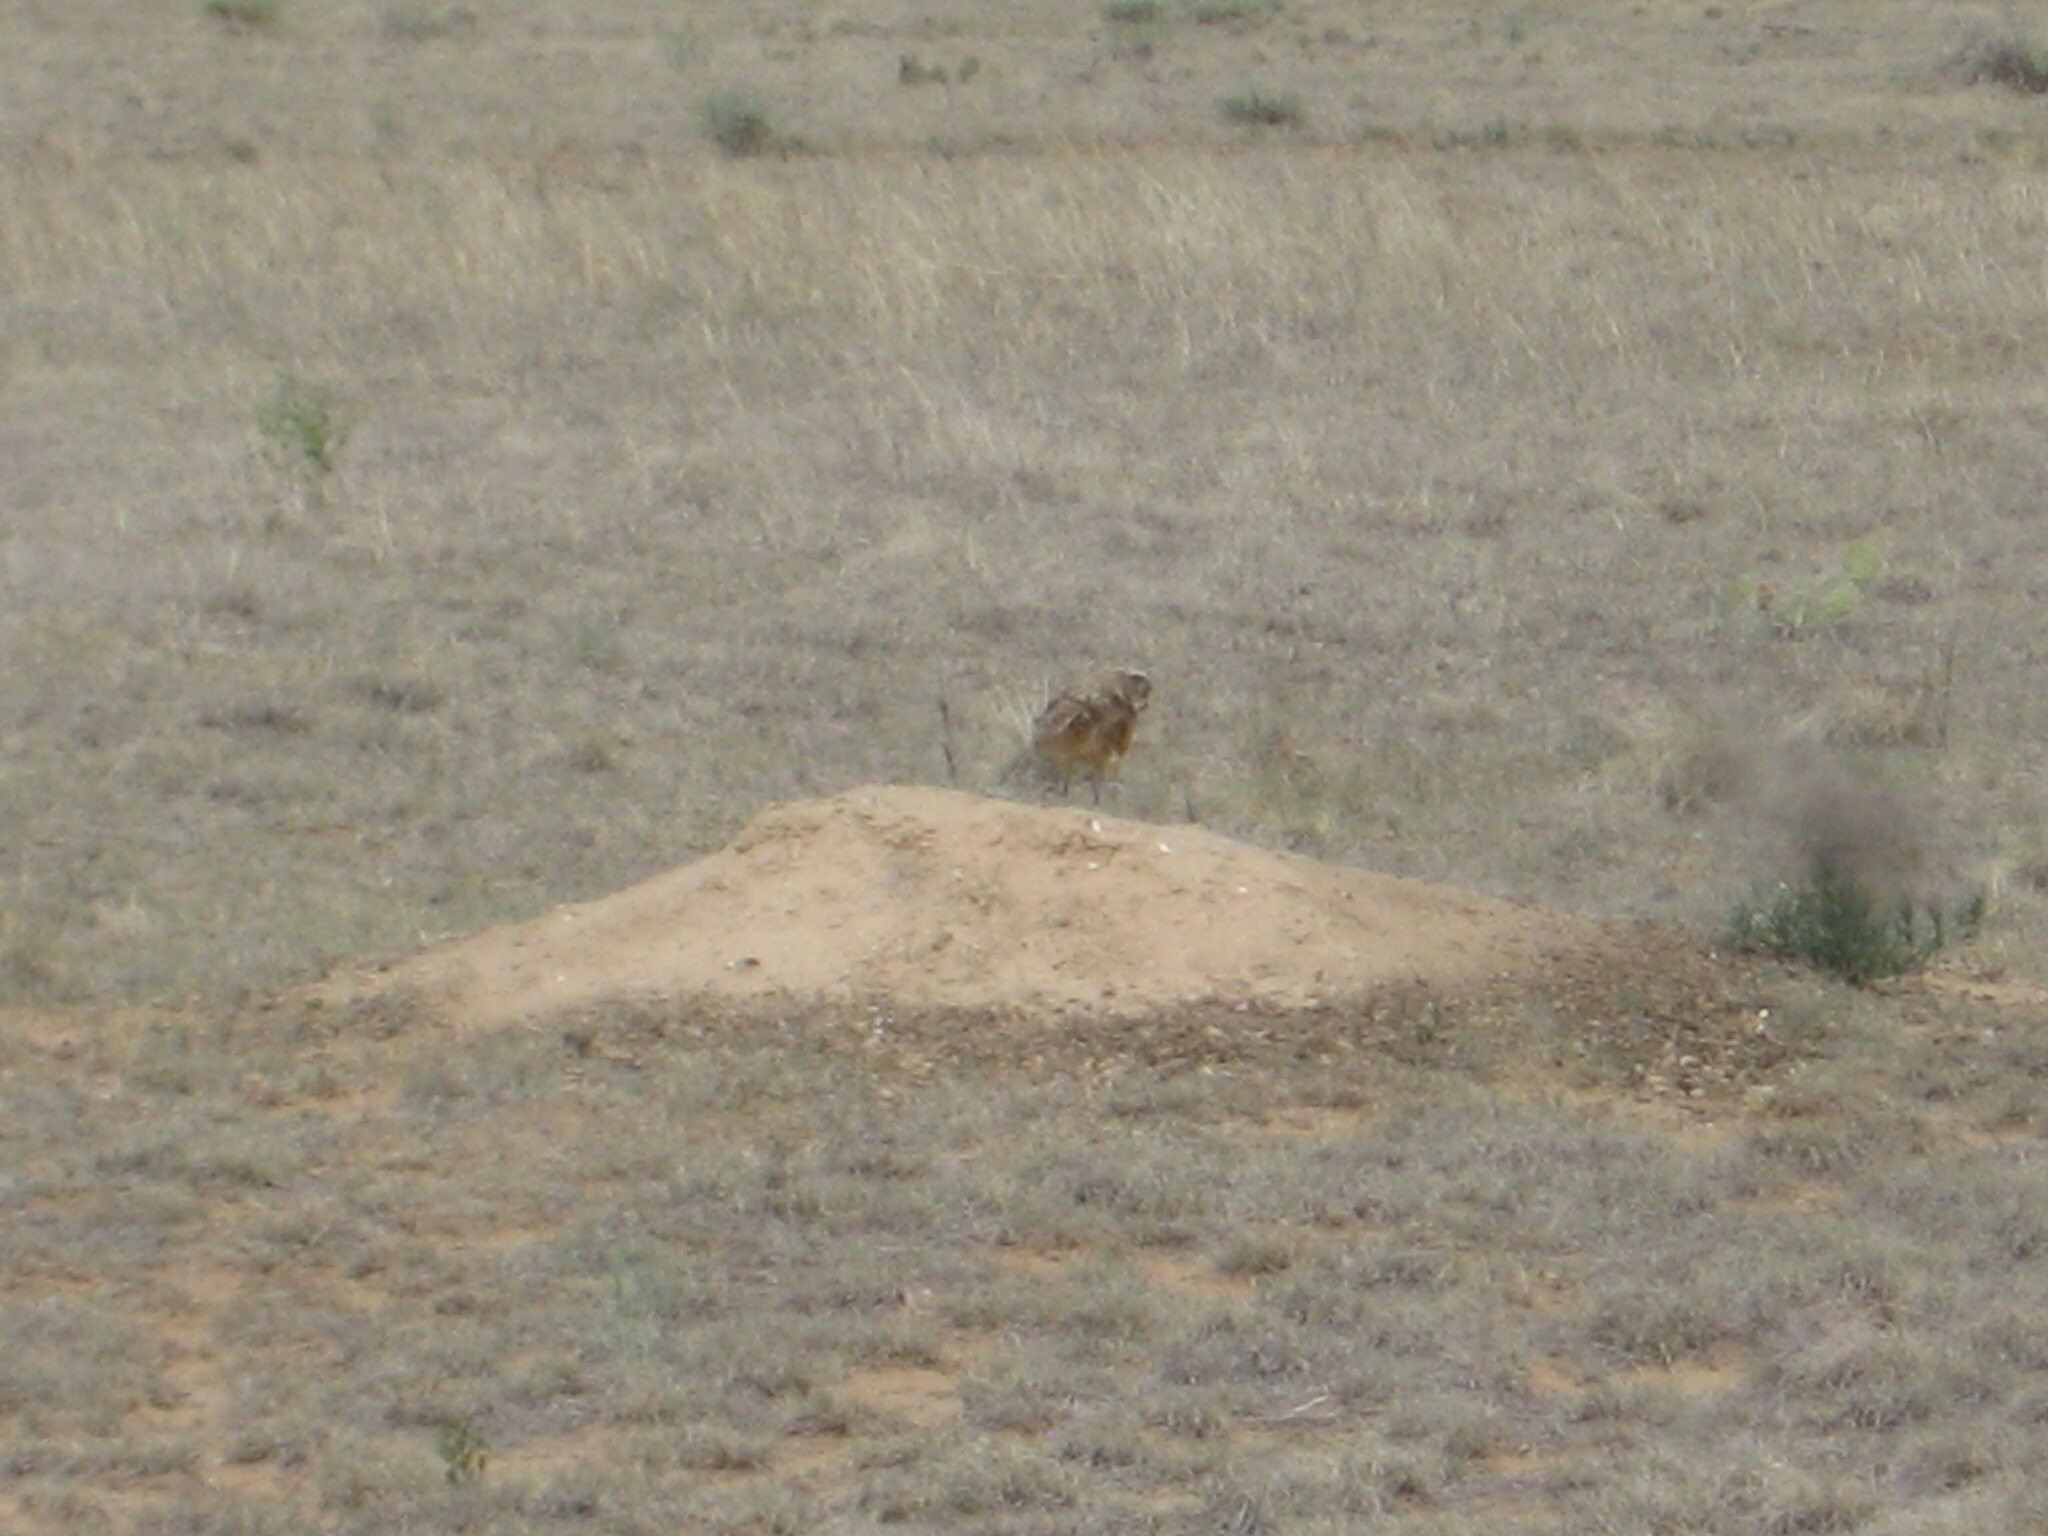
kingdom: Animalia
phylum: Chordata
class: Aves
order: Strigiformes
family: Strigidae
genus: Athene
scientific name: Athene cunicularia
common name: Burrowing owl
